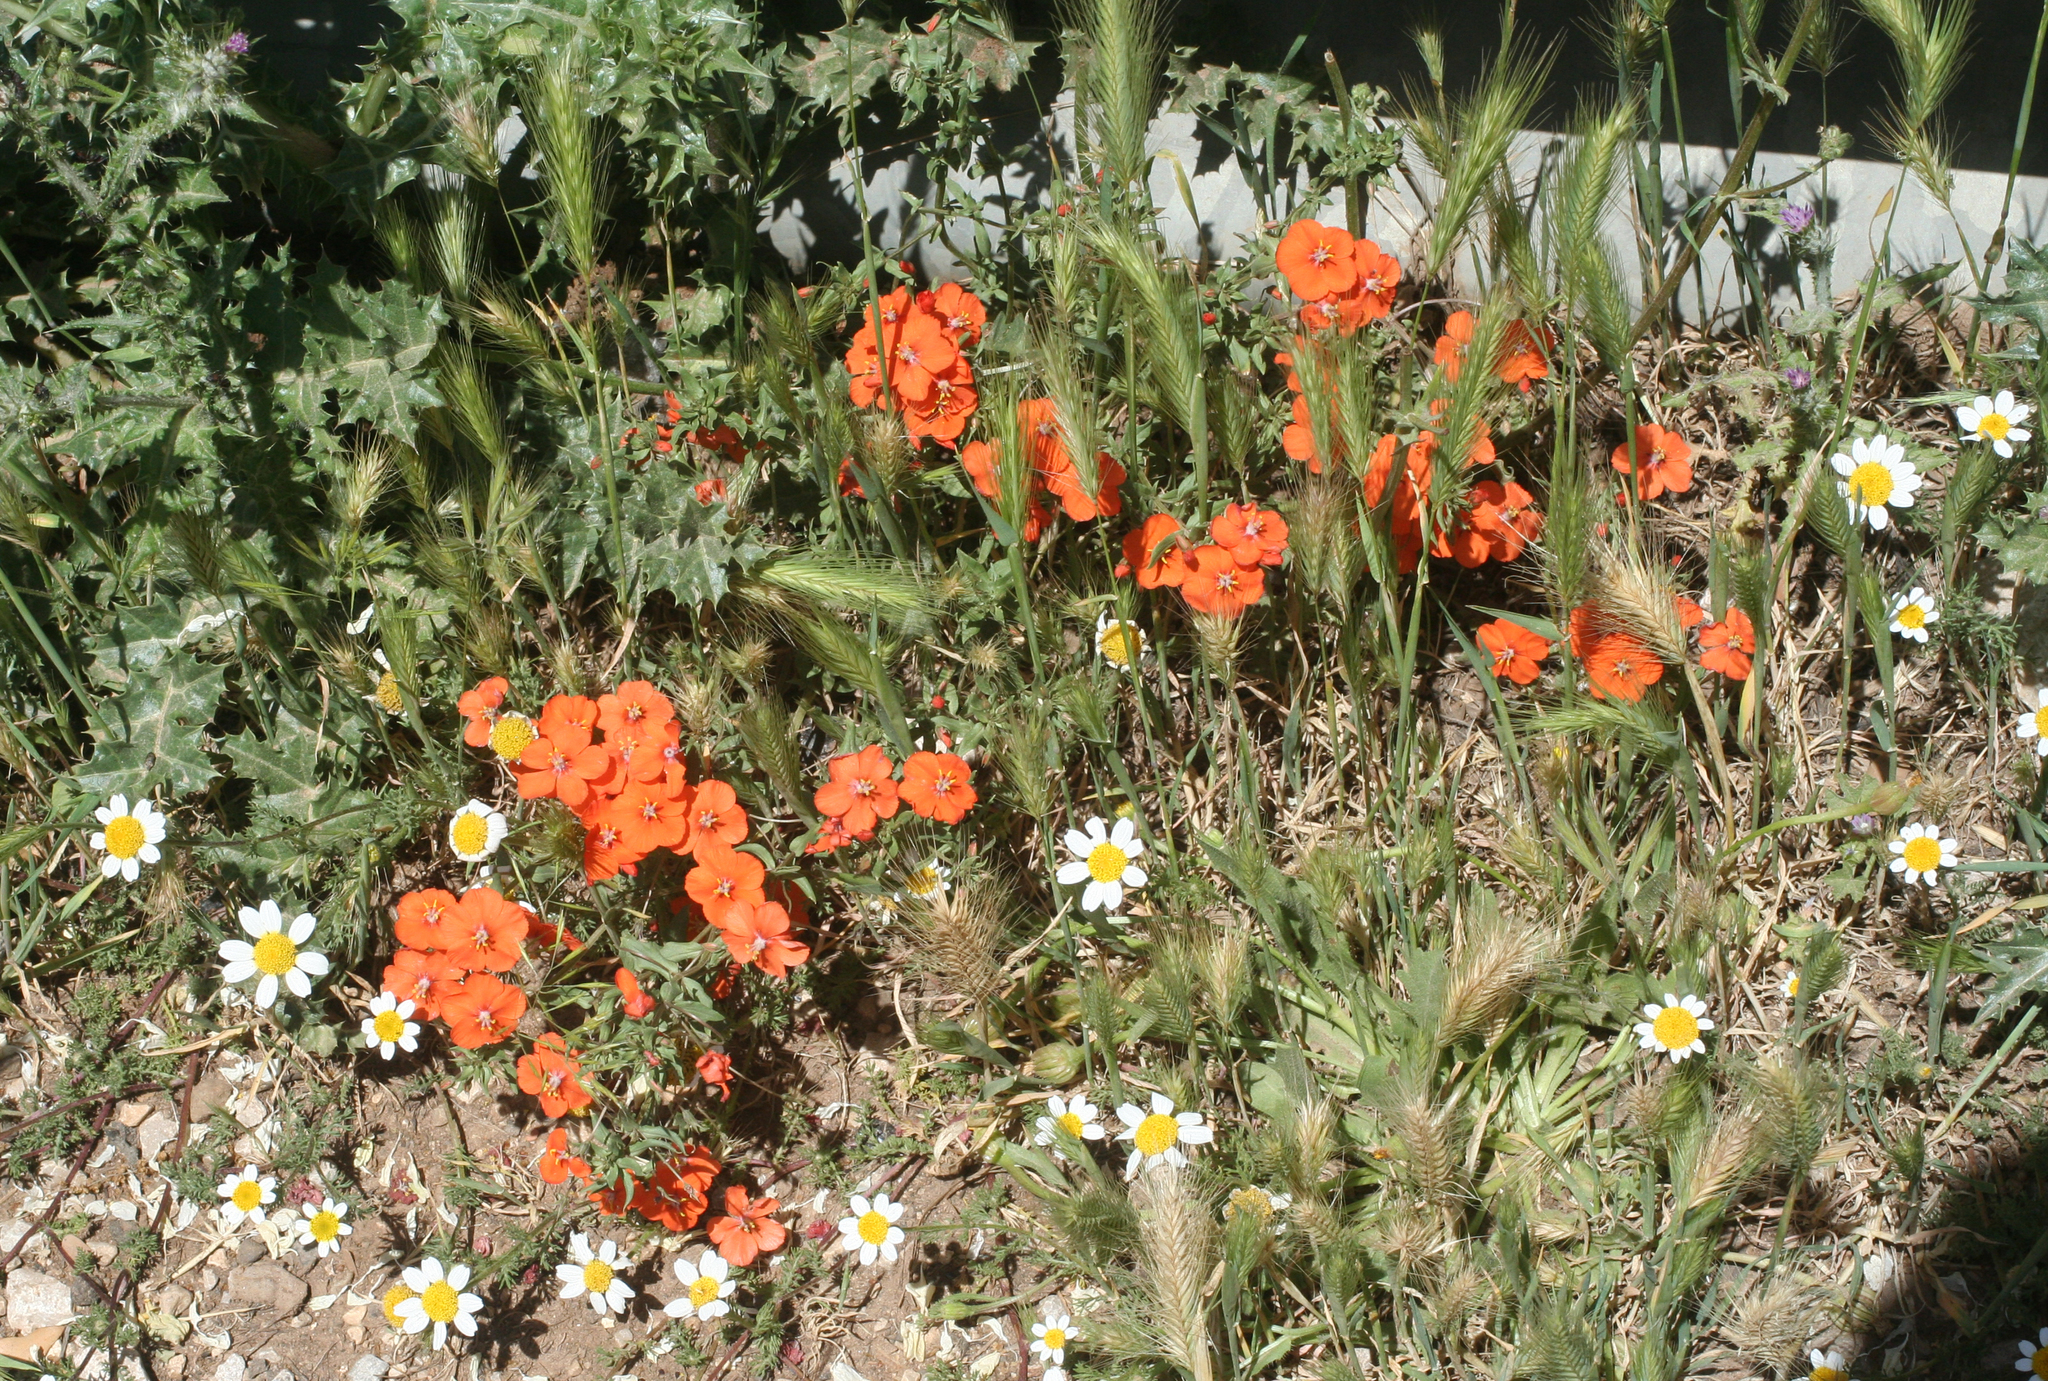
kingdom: Plantae
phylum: Tracheophyta
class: Magnoliopsida
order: Ericales
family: Primulaceae
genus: Lysimachia
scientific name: Lysimachia collina
